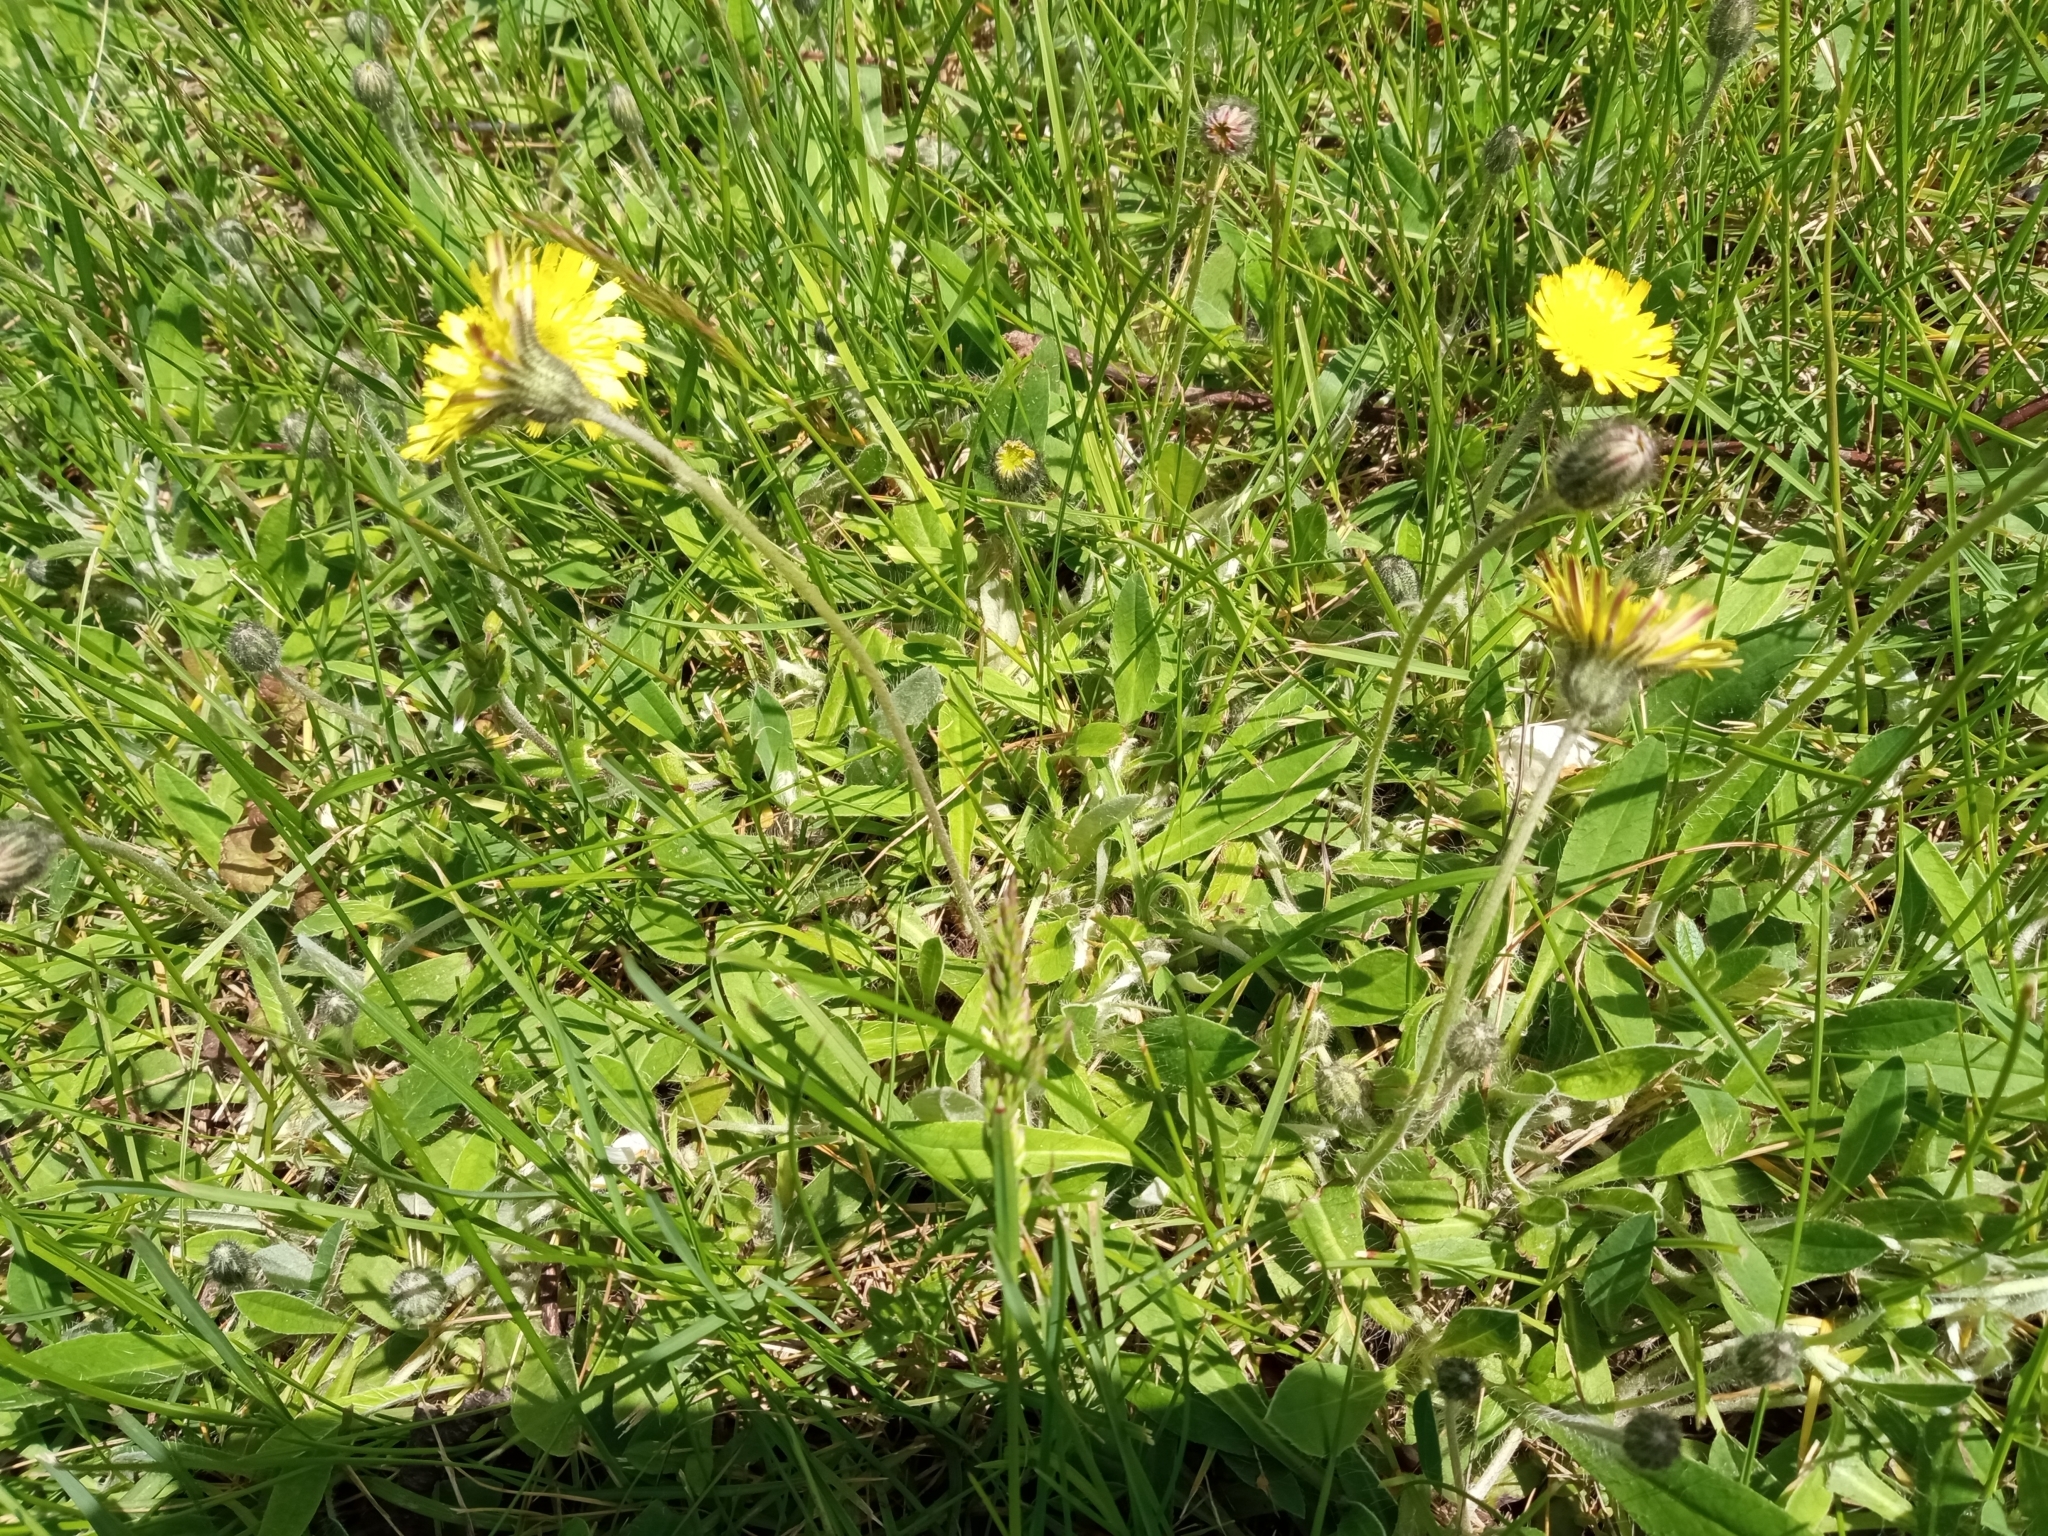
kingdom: Plantae
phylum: Tracheophyta
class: Magnoliopsida
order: Asterales
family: Asteraceae
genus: Pilosella
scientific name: Pilosella officinarum
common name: Mouse-ear hawkweed
